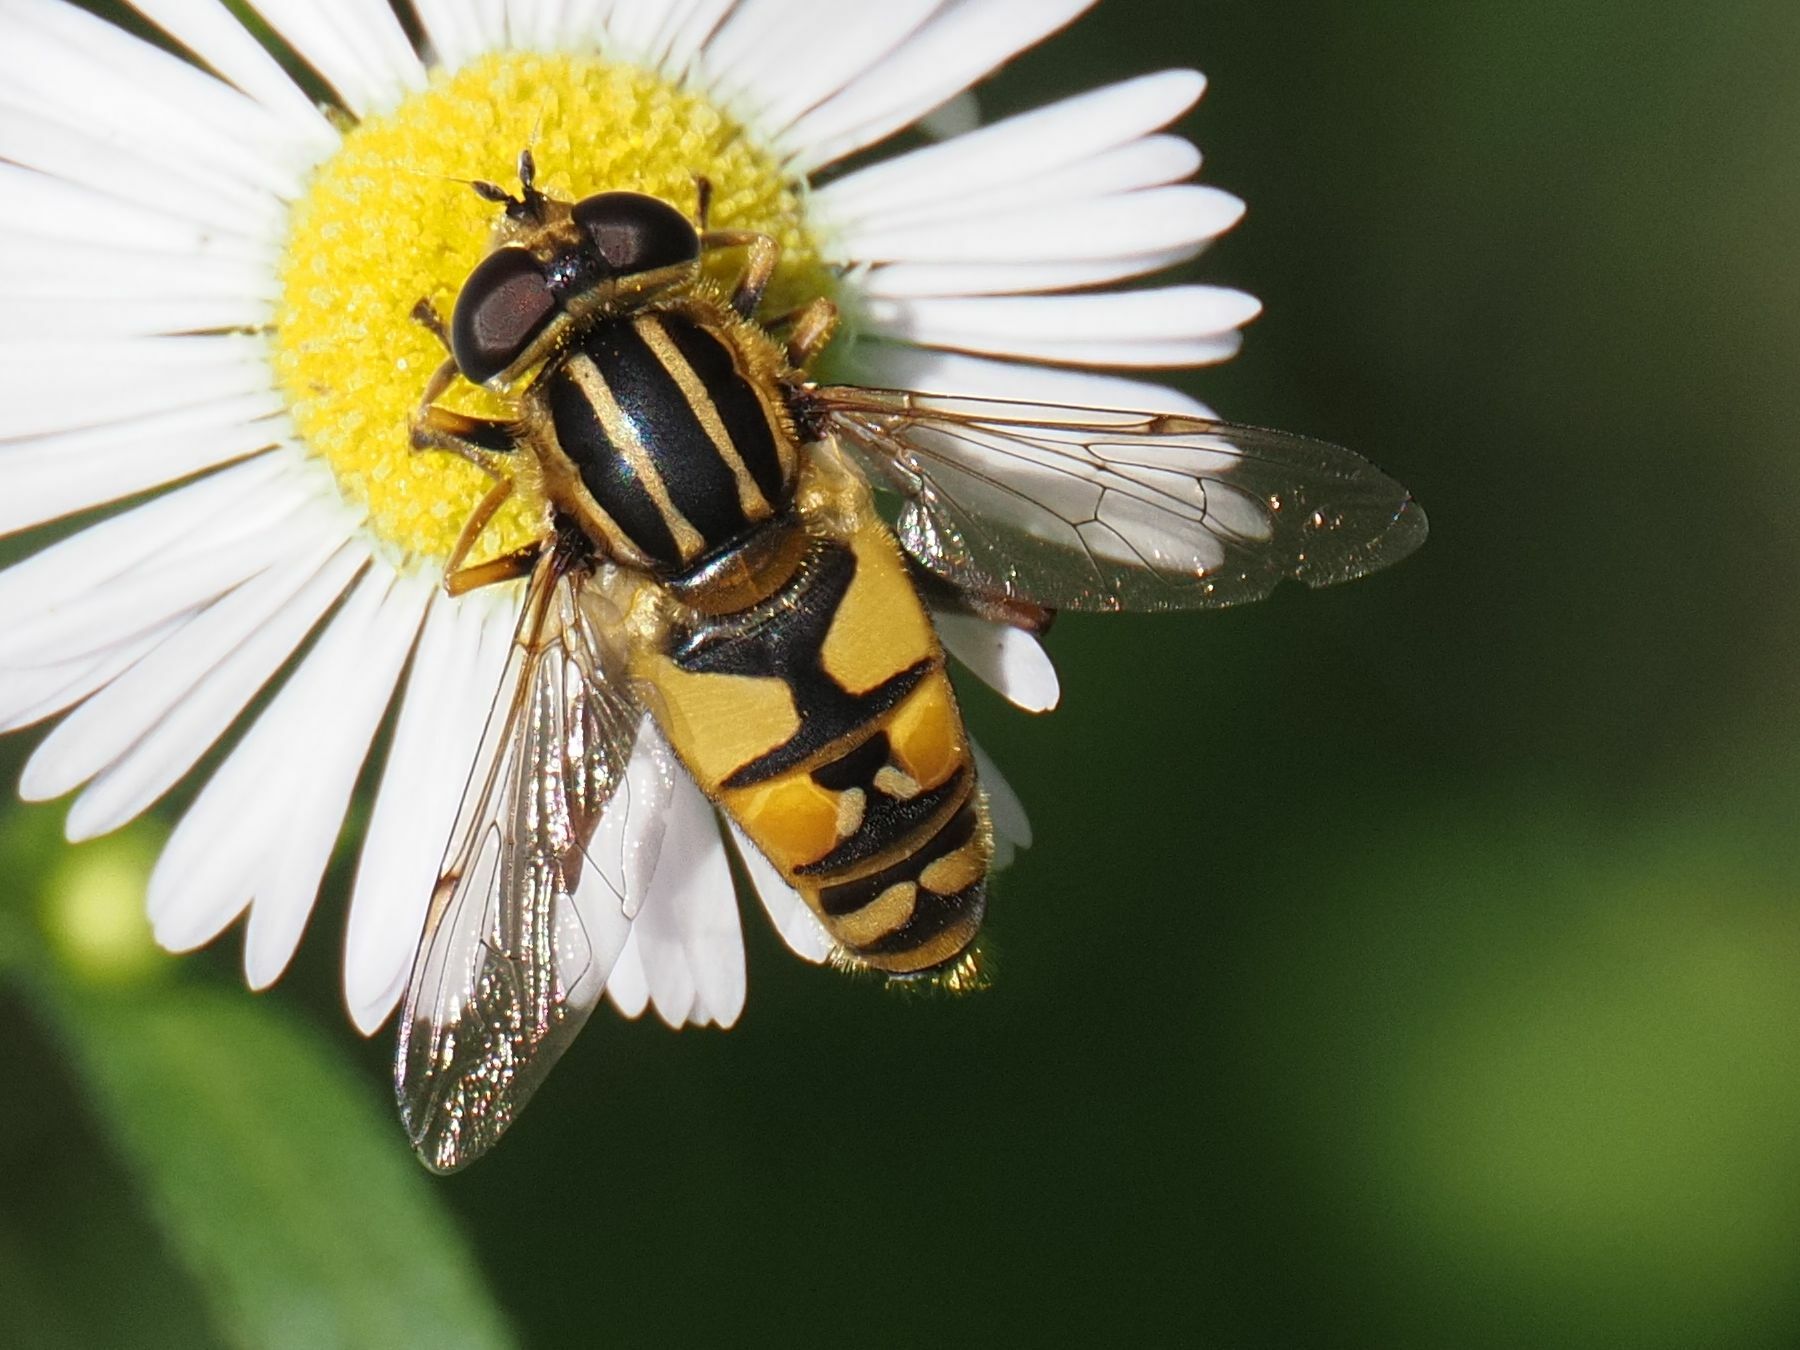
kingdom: Animalia
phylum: Arthropoda
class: Insecta
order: Diptera
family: Syrphidae
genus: Helophilus
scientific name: Helophilus pendulus
